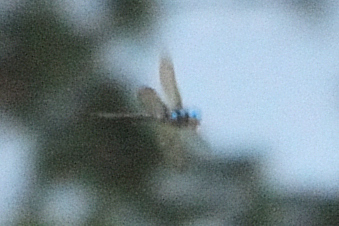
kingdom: Animalia
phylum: Arthropoda
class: Insecta
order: Odonata
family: Aeshnidae
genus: Anaciaeschna
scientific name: Anaciaeschna martini
